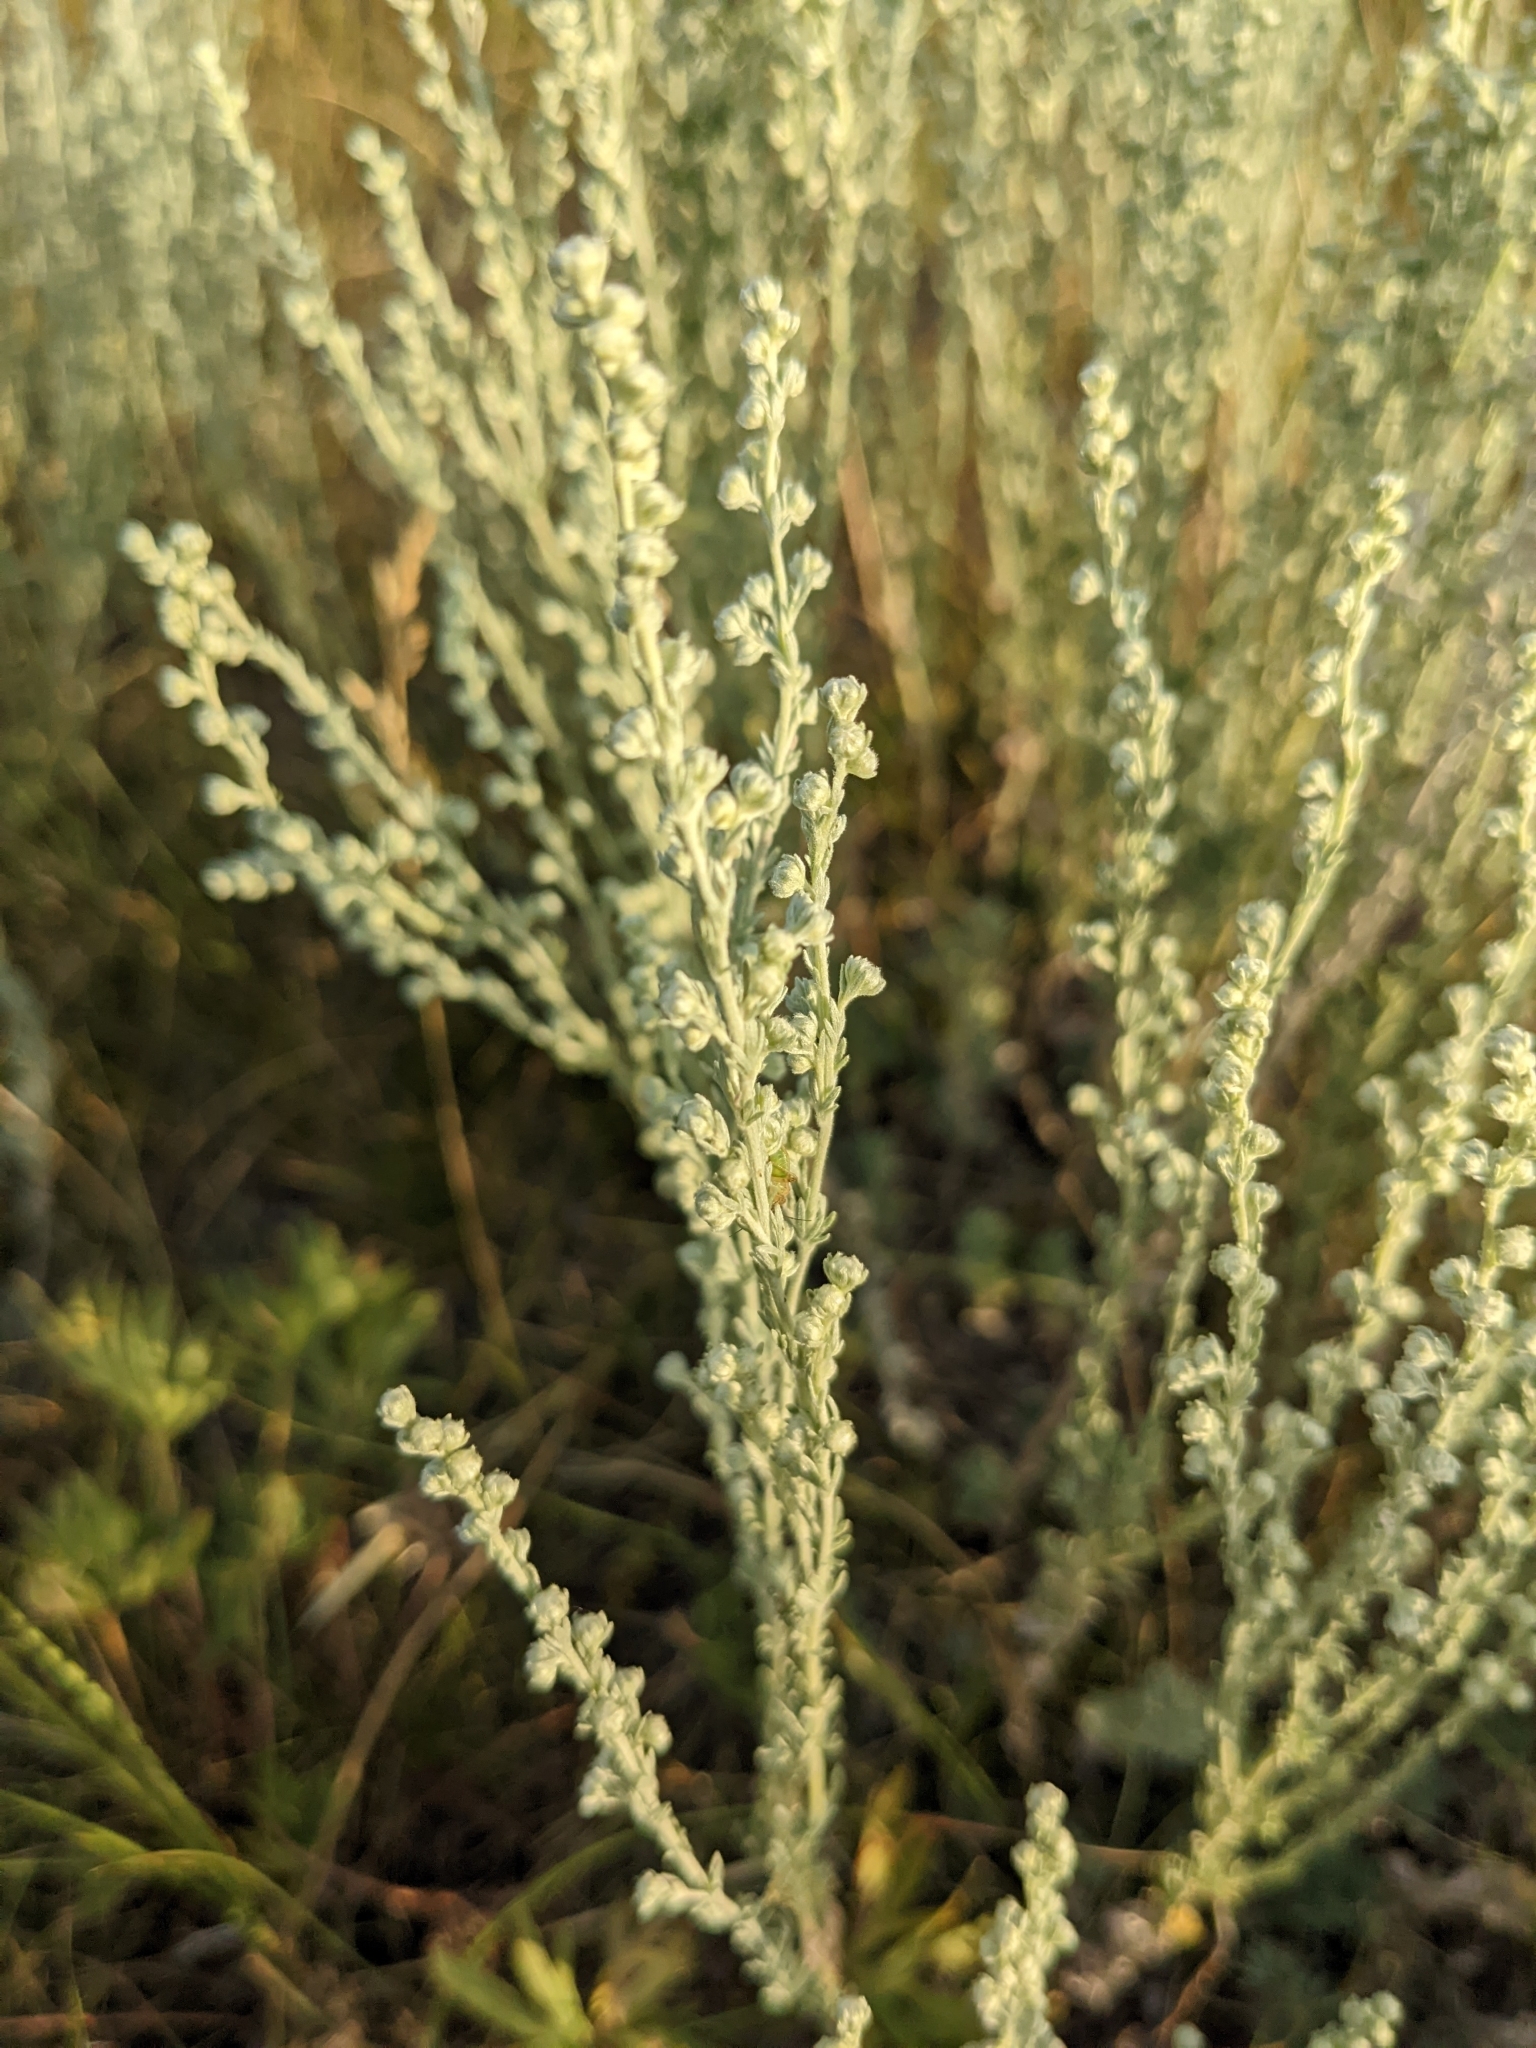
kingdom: Plantae
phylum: Tracheophyta
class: Magnoliopsida
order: Asterales
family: Asteraceae
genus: Artemisia
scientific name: Artemisia frigida
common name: Prairie sagewort
